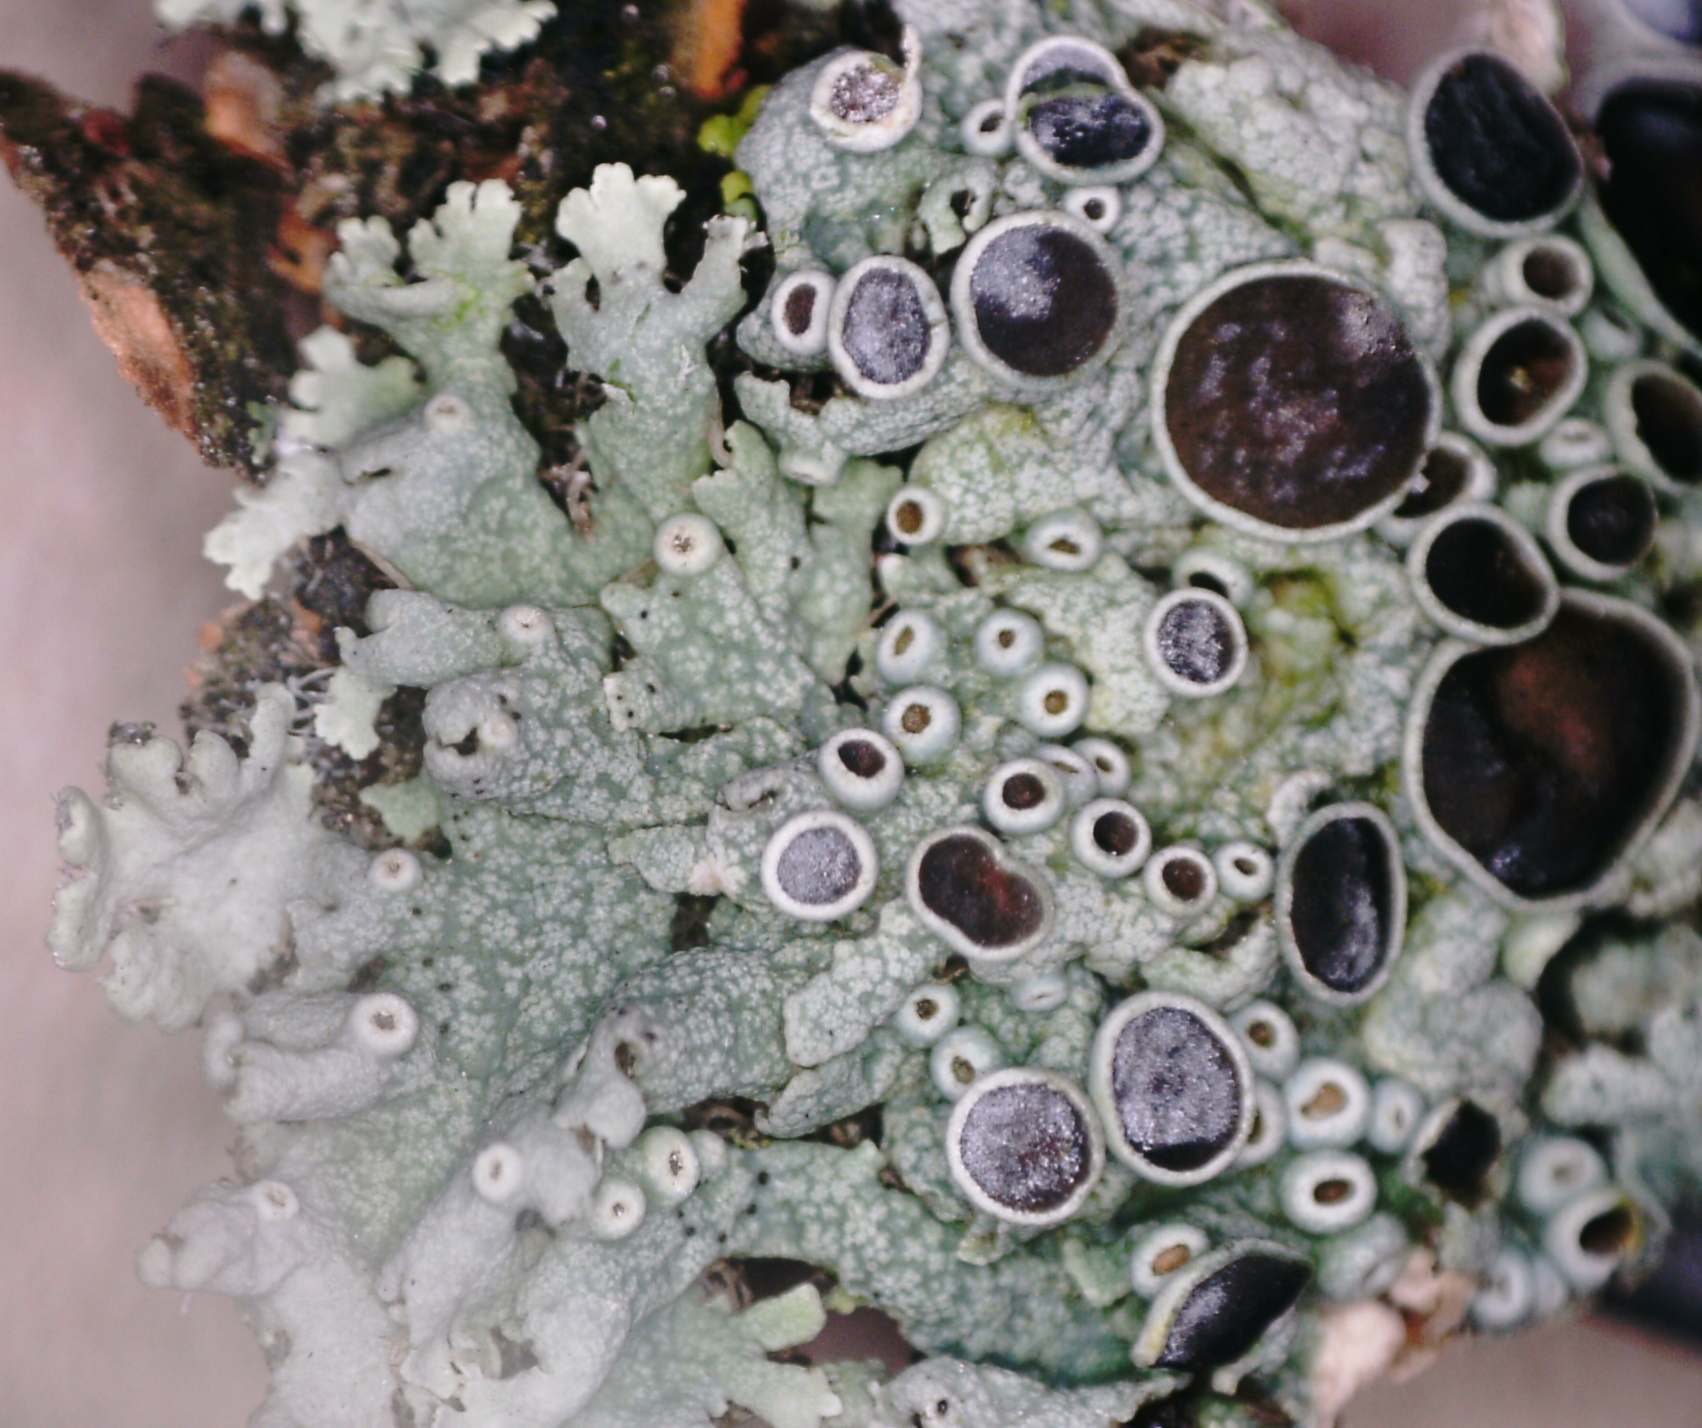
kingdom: Fungi
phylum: Ascomycota
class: Lecanoromycetes
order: Caliciales
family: Physciaceae
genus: Physcia
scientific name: Physcia stellaris
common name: Star rosette lichen
